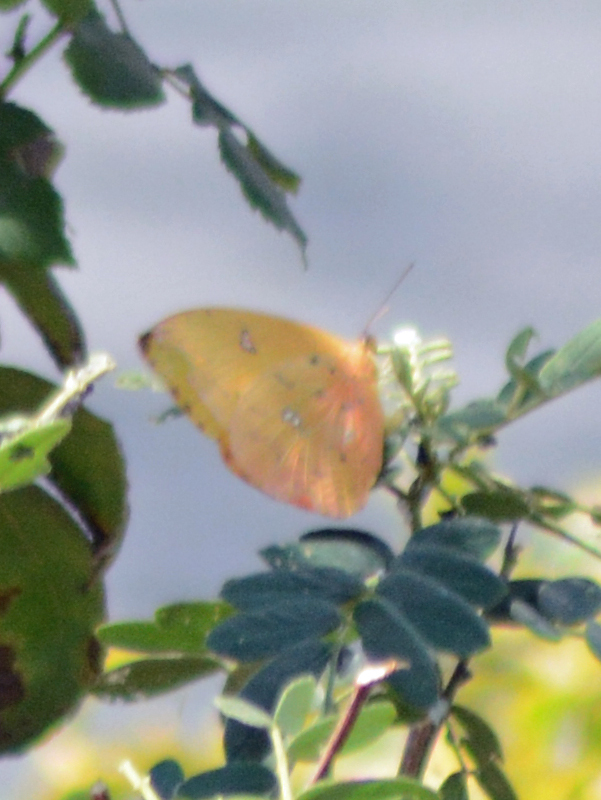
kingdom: Animalia
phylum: Arthropoda
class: Insecta
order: Lepidoptera
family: Pieridae
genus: Phoebis
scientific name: Phoebis philea
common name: Orange-barred giant sulphur
